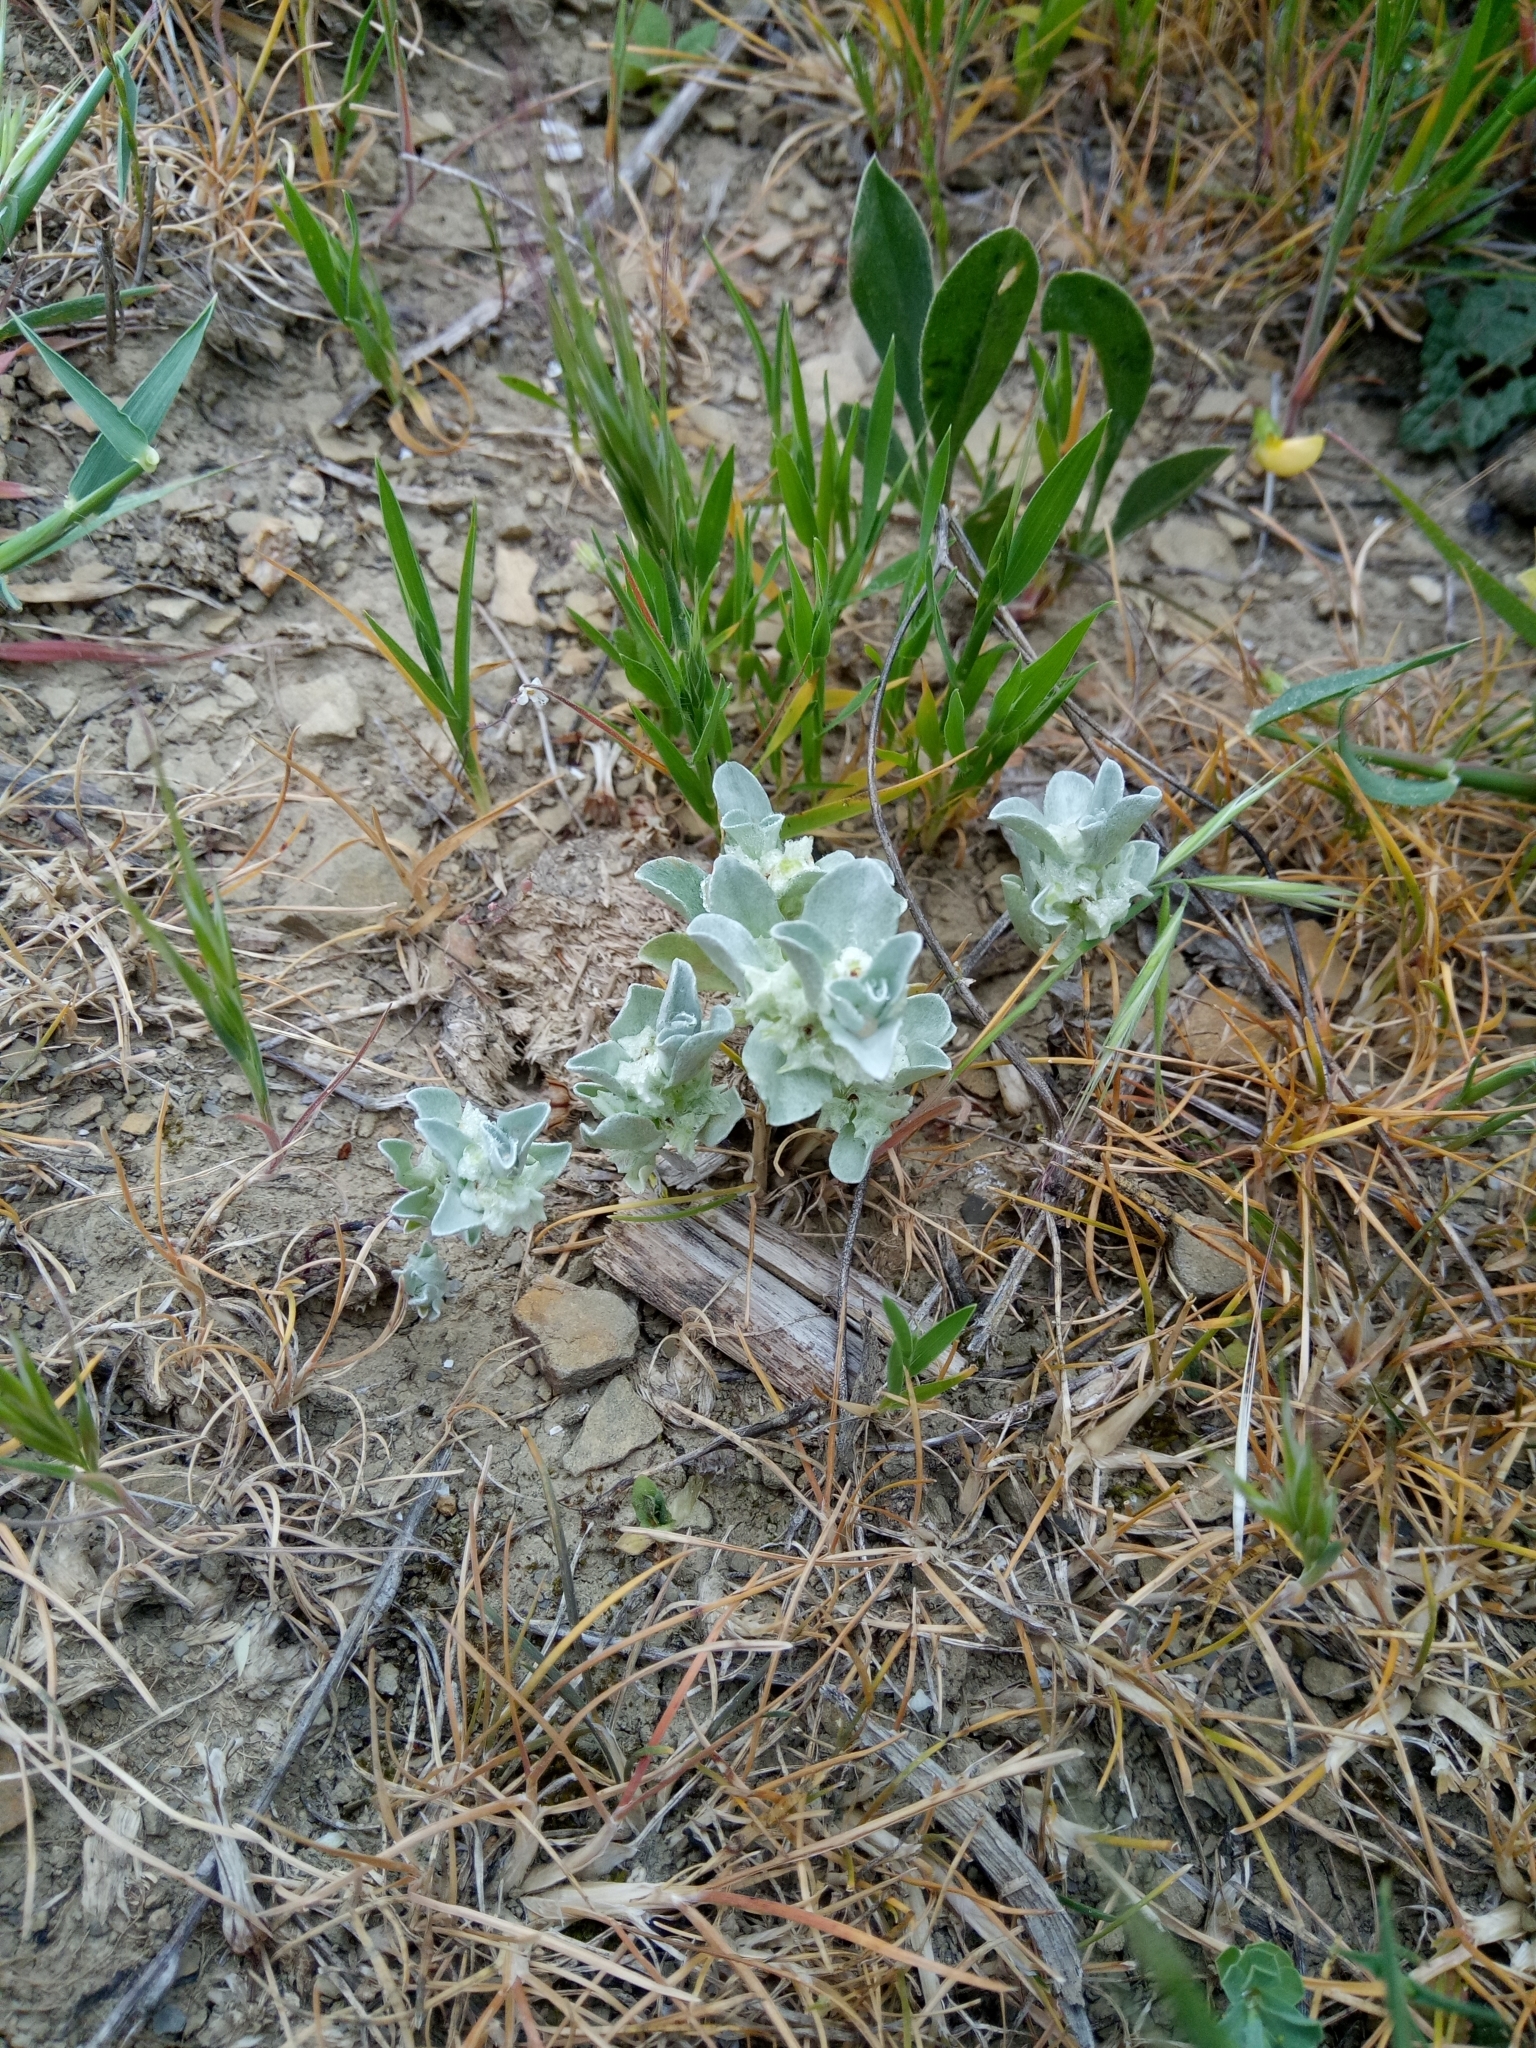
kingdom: Plantae
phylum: Tracheophyta
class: Magnoliopsida
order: Asterales
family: Asteraceae
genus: Micropus
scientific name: Micropus supinus
